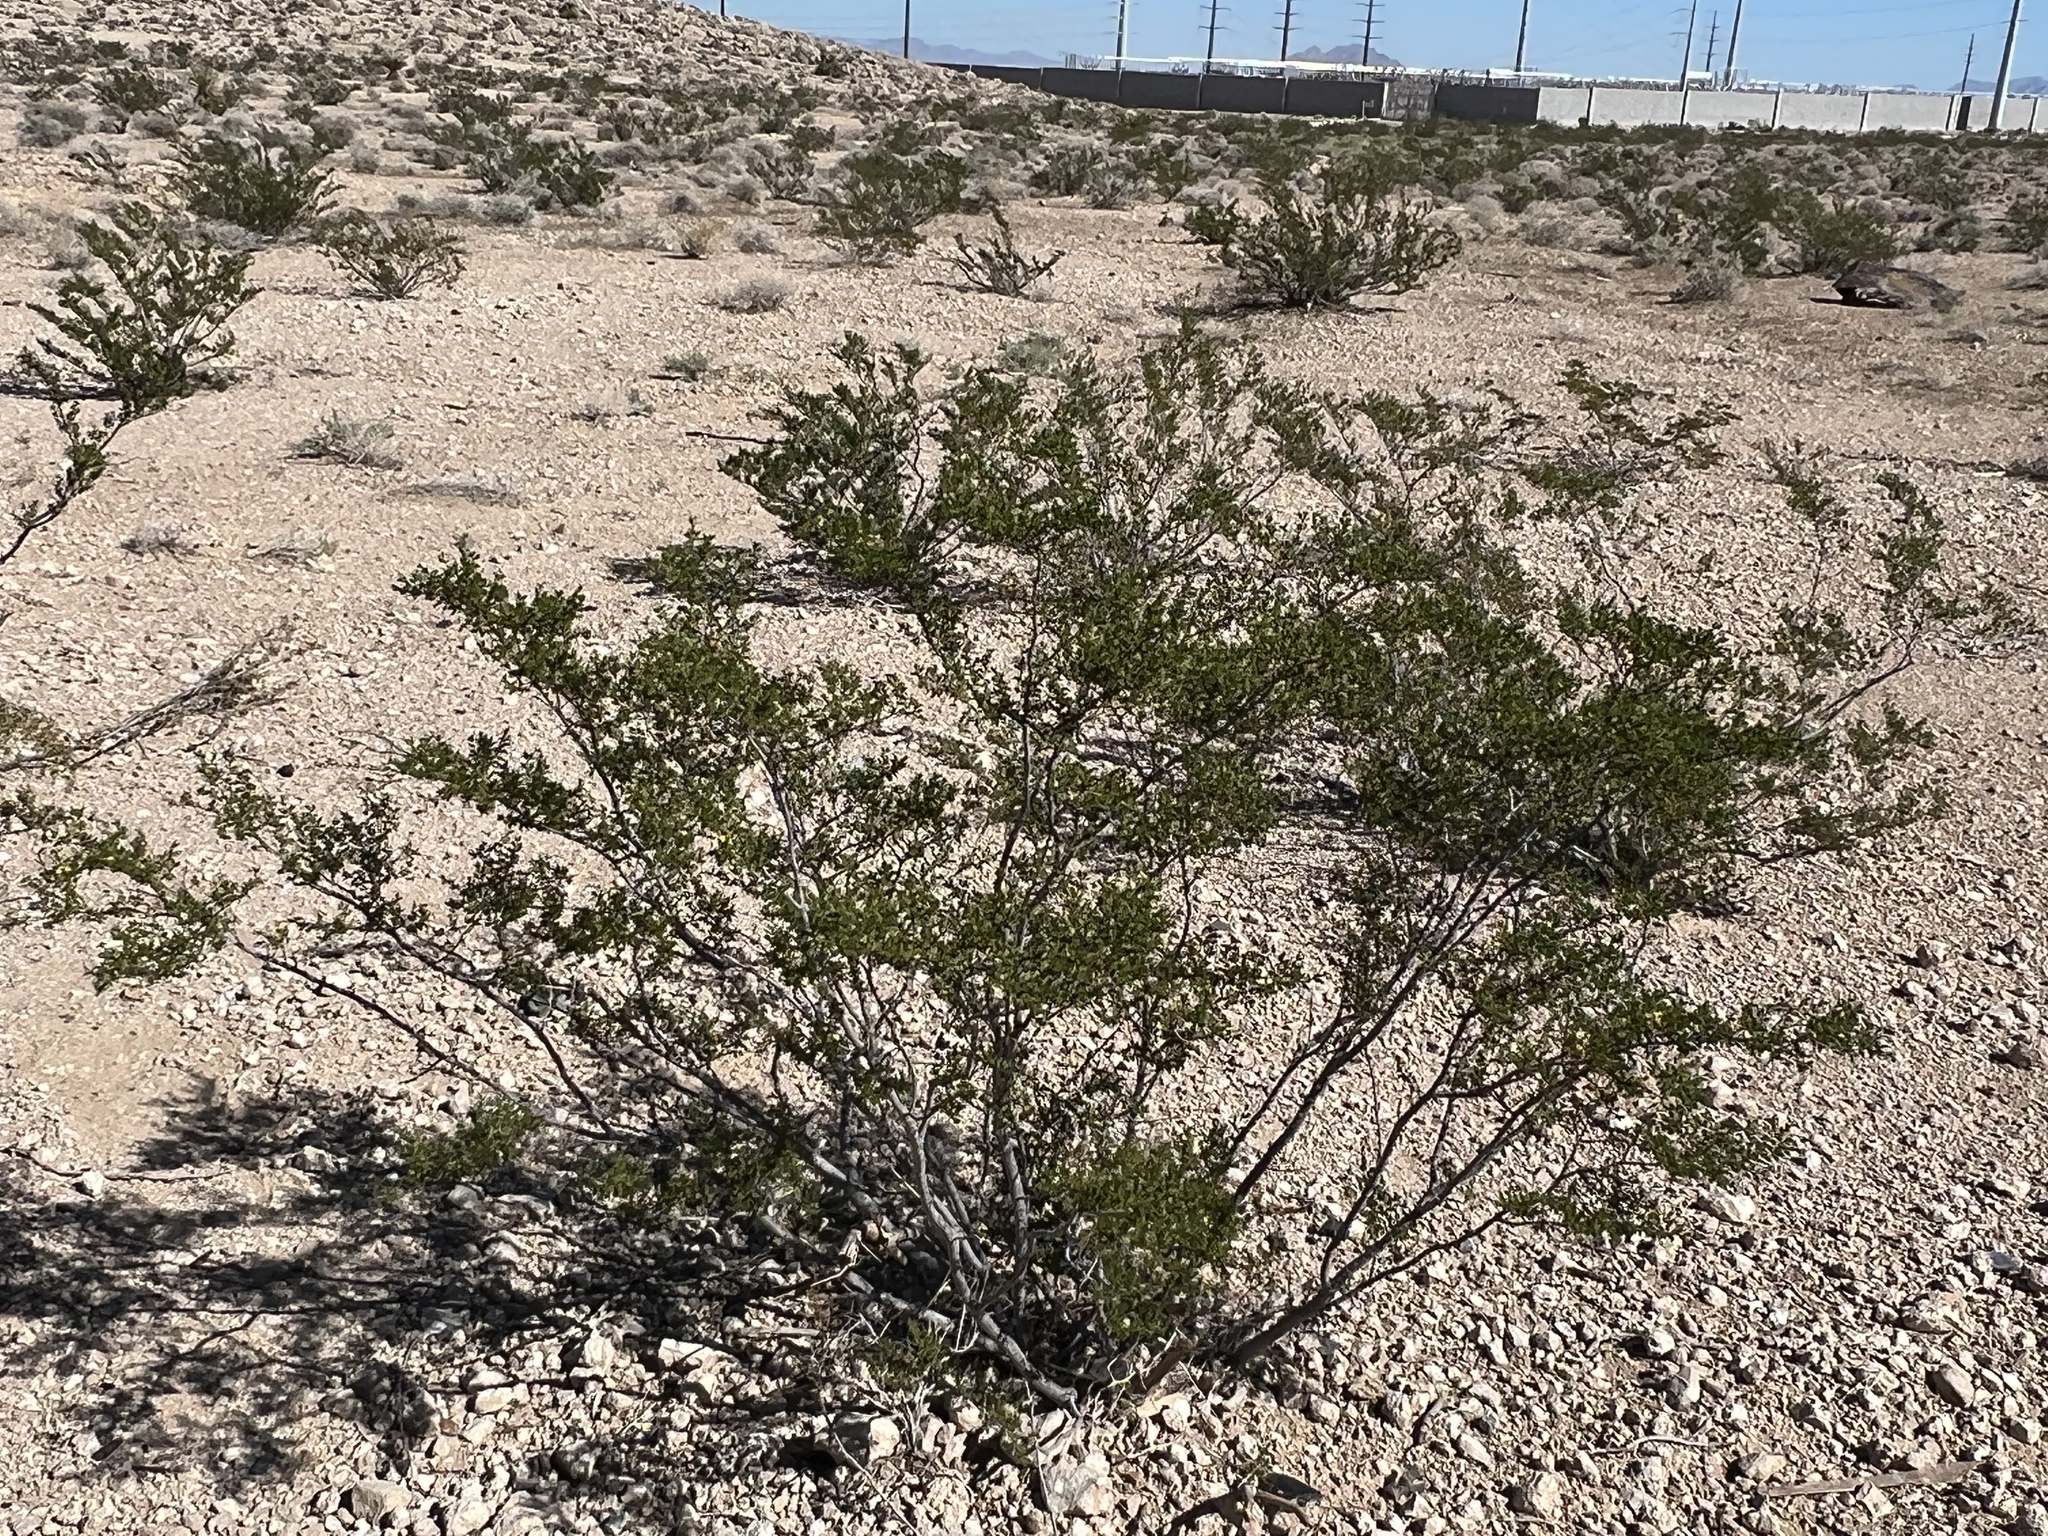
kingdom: Plantae
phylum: Tracheophyta
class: Magnoliopsida
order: Zygophyllales
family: Zygophyllaceae
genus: Larrea
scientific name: Larrea tridentata
